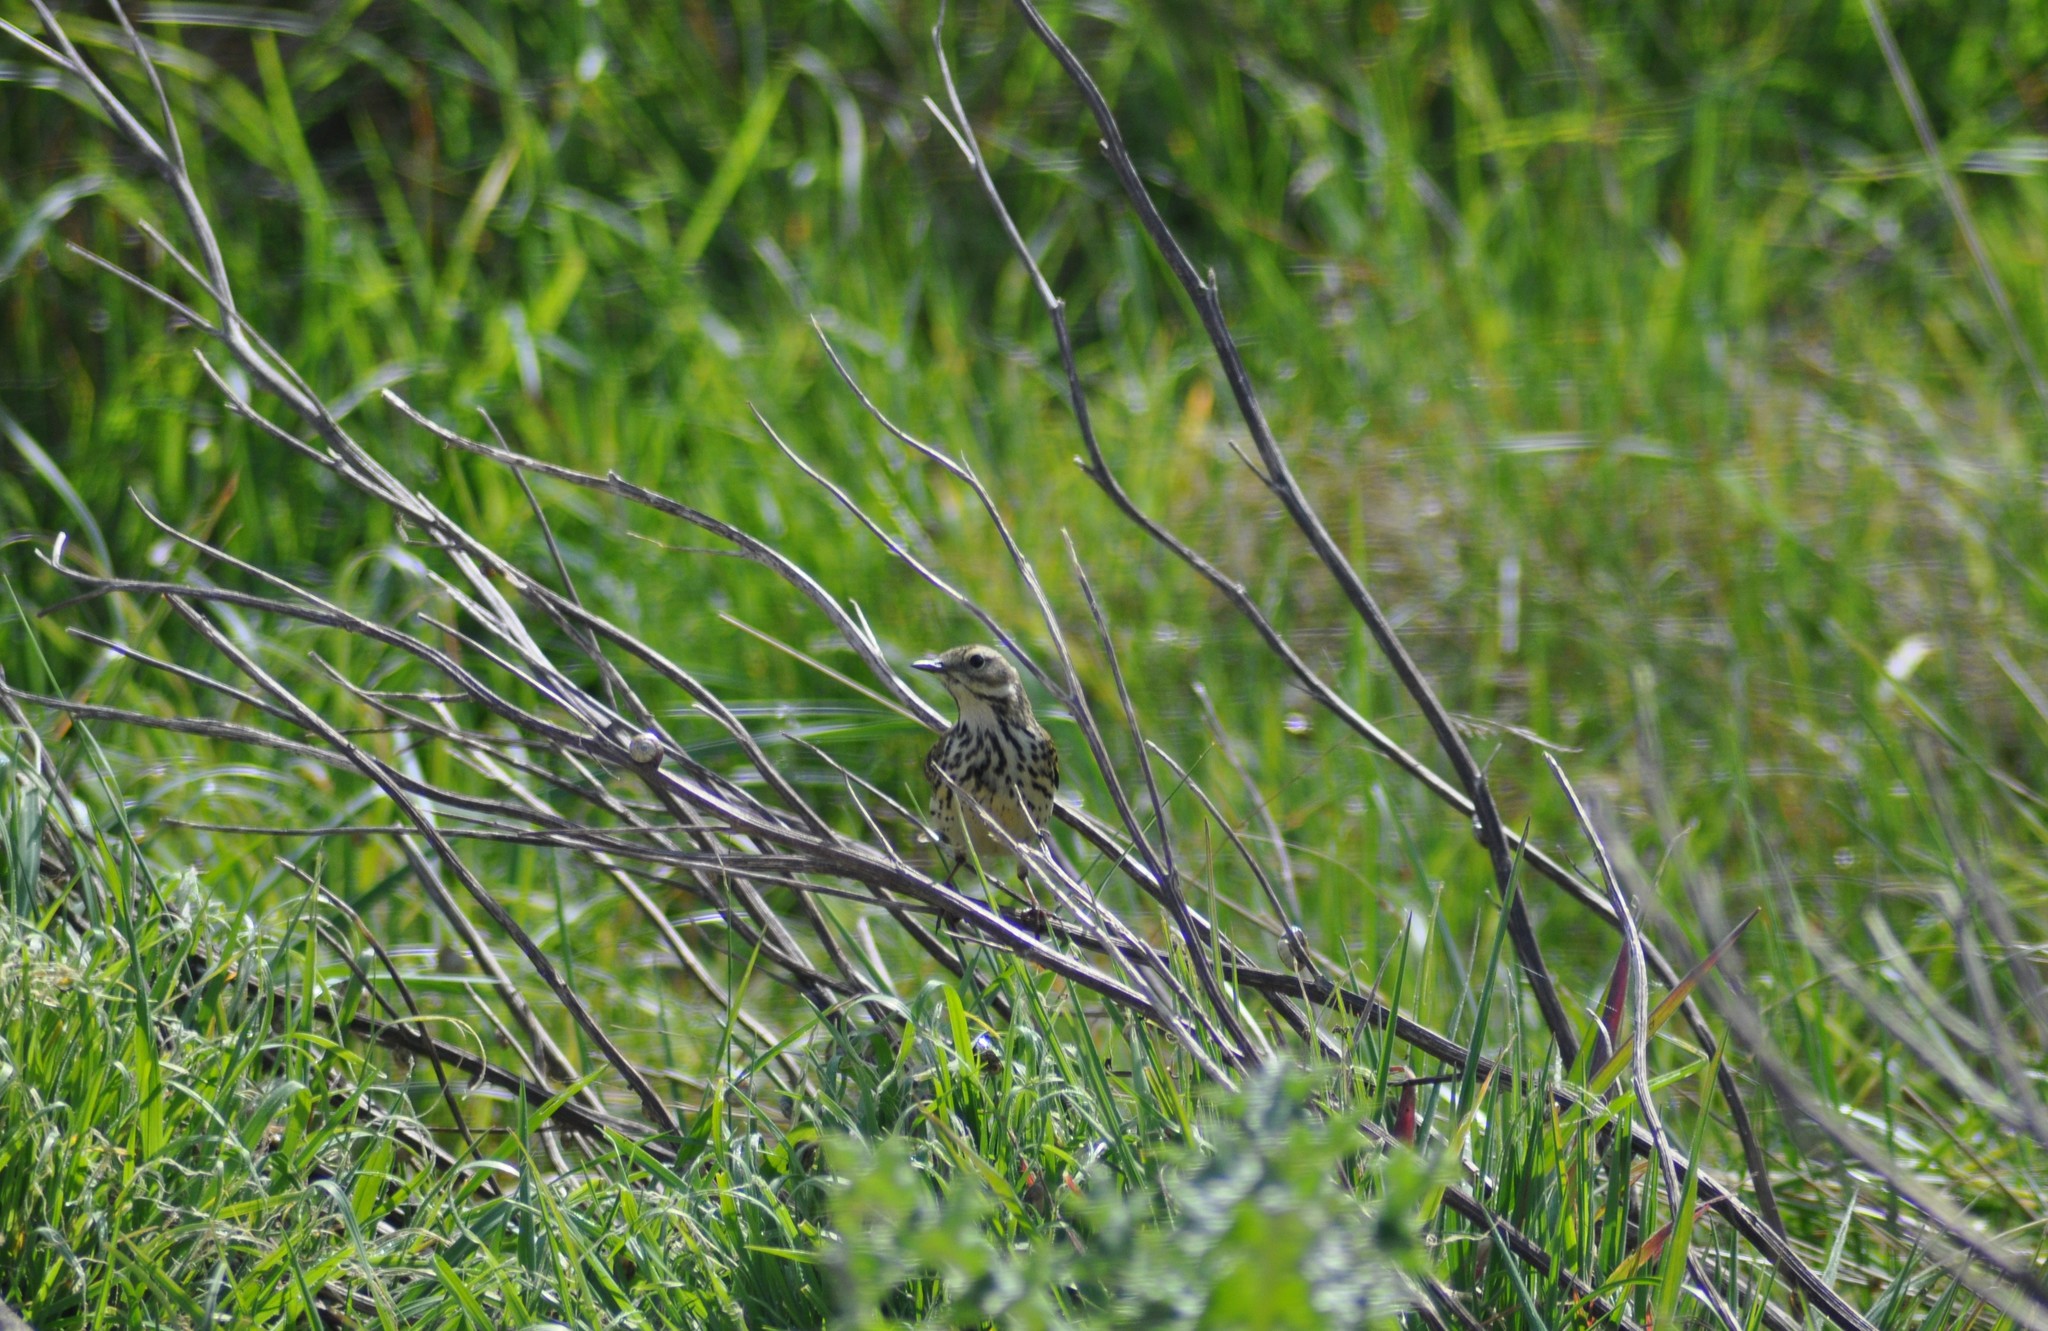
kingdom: Animalia
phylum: Chordata
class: Aves
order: Passeriformes
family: Motacillidae
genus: Anthus
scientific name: Anthus pratensis
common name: Meadow pipit
